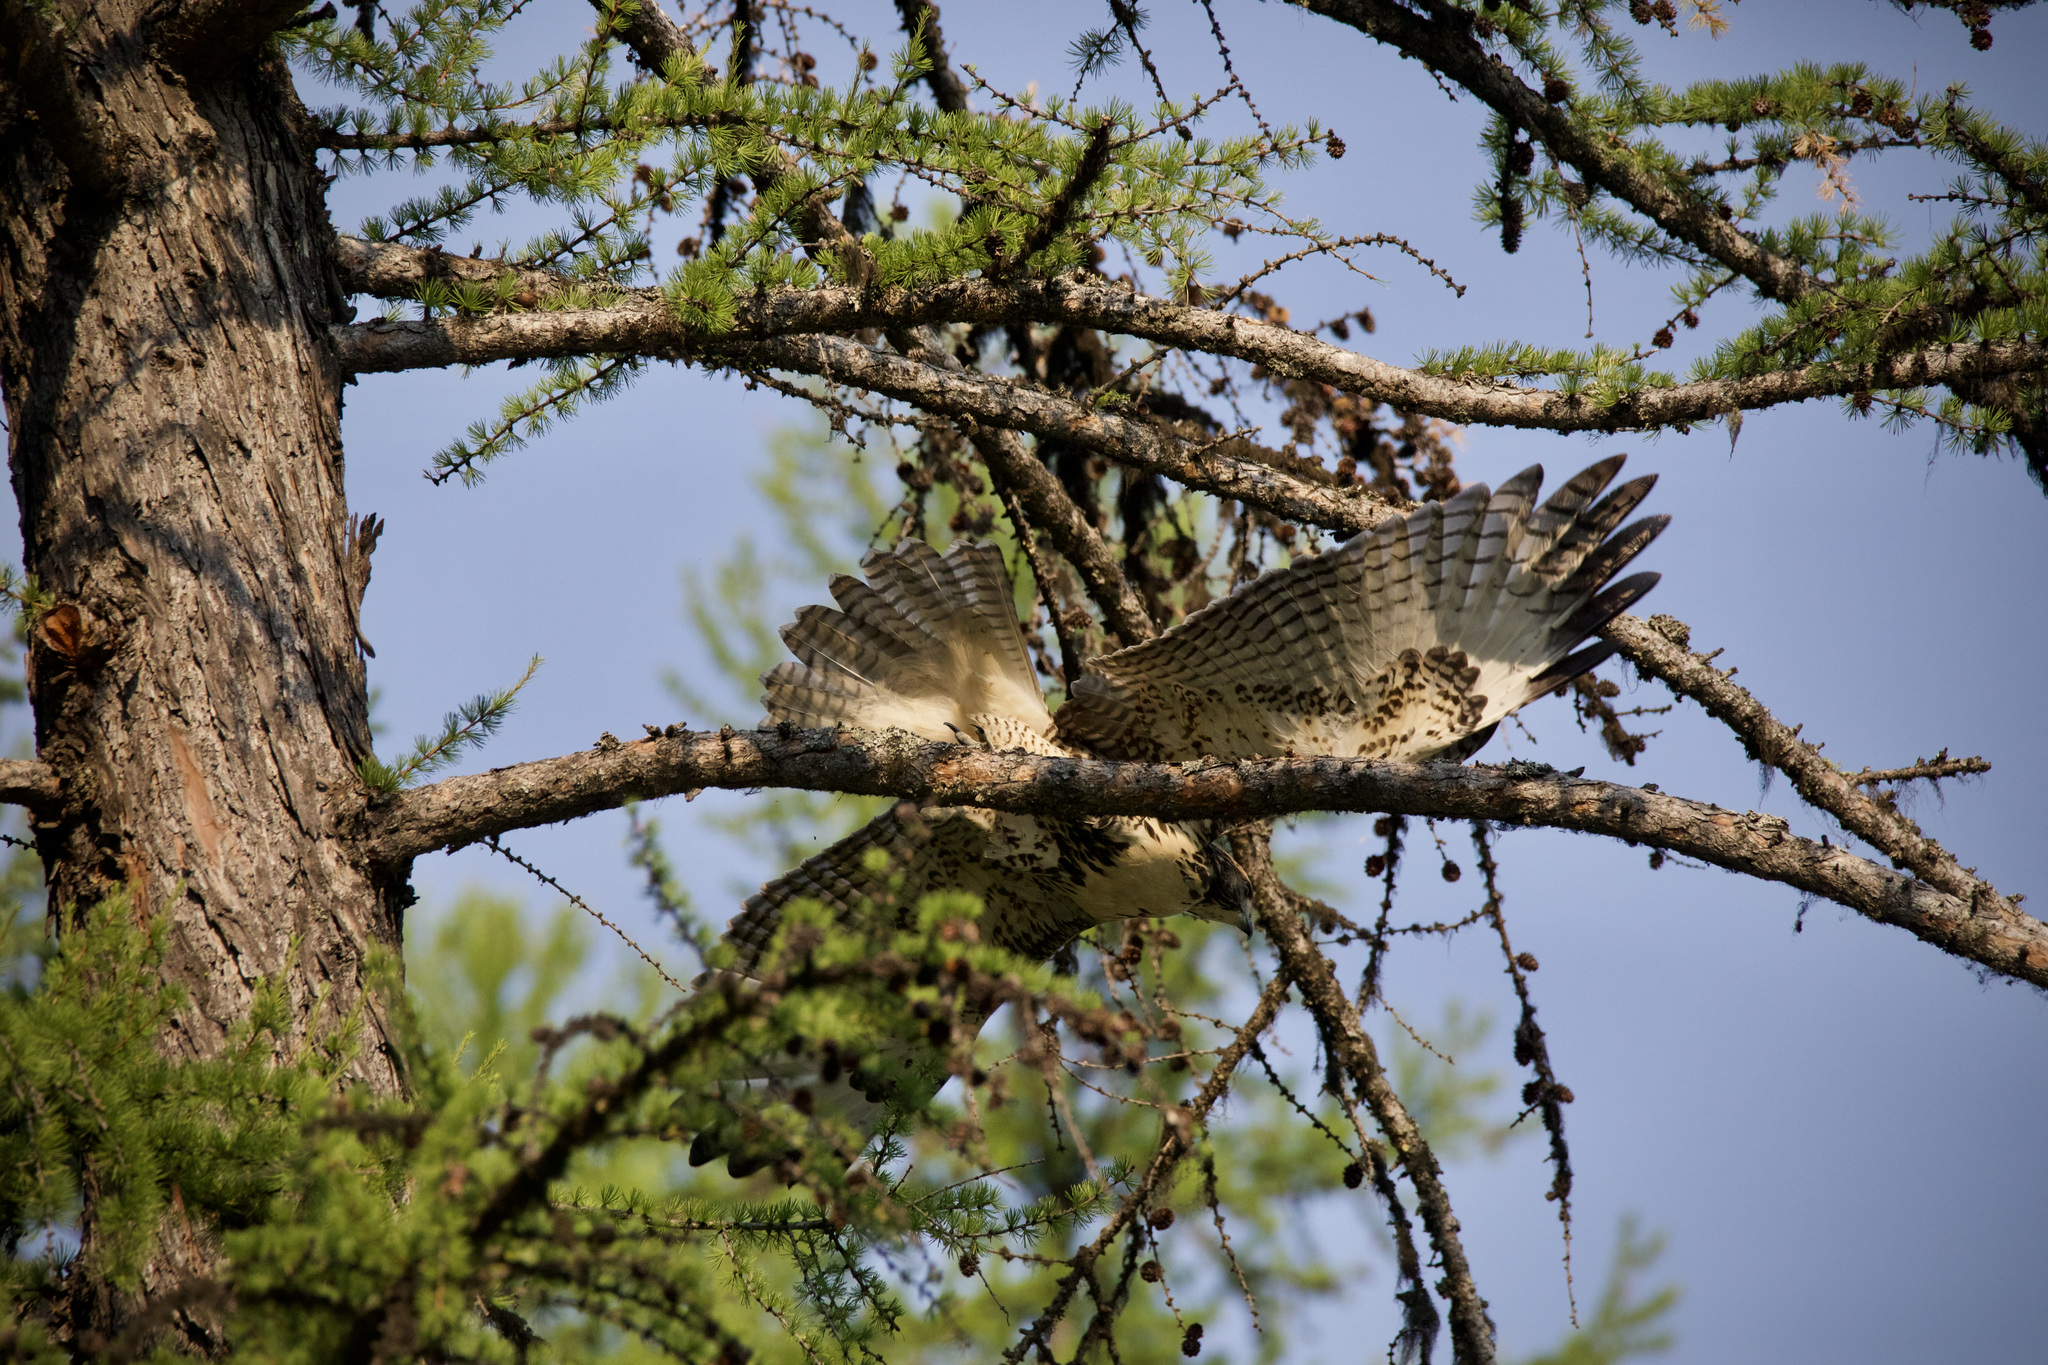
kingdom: Animalia
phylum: Chordata
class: Aves
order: Accipitriformes
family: Accipitridae
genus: Buteo
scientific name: Buteo jamaicensis
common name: Red-tailed hawk
